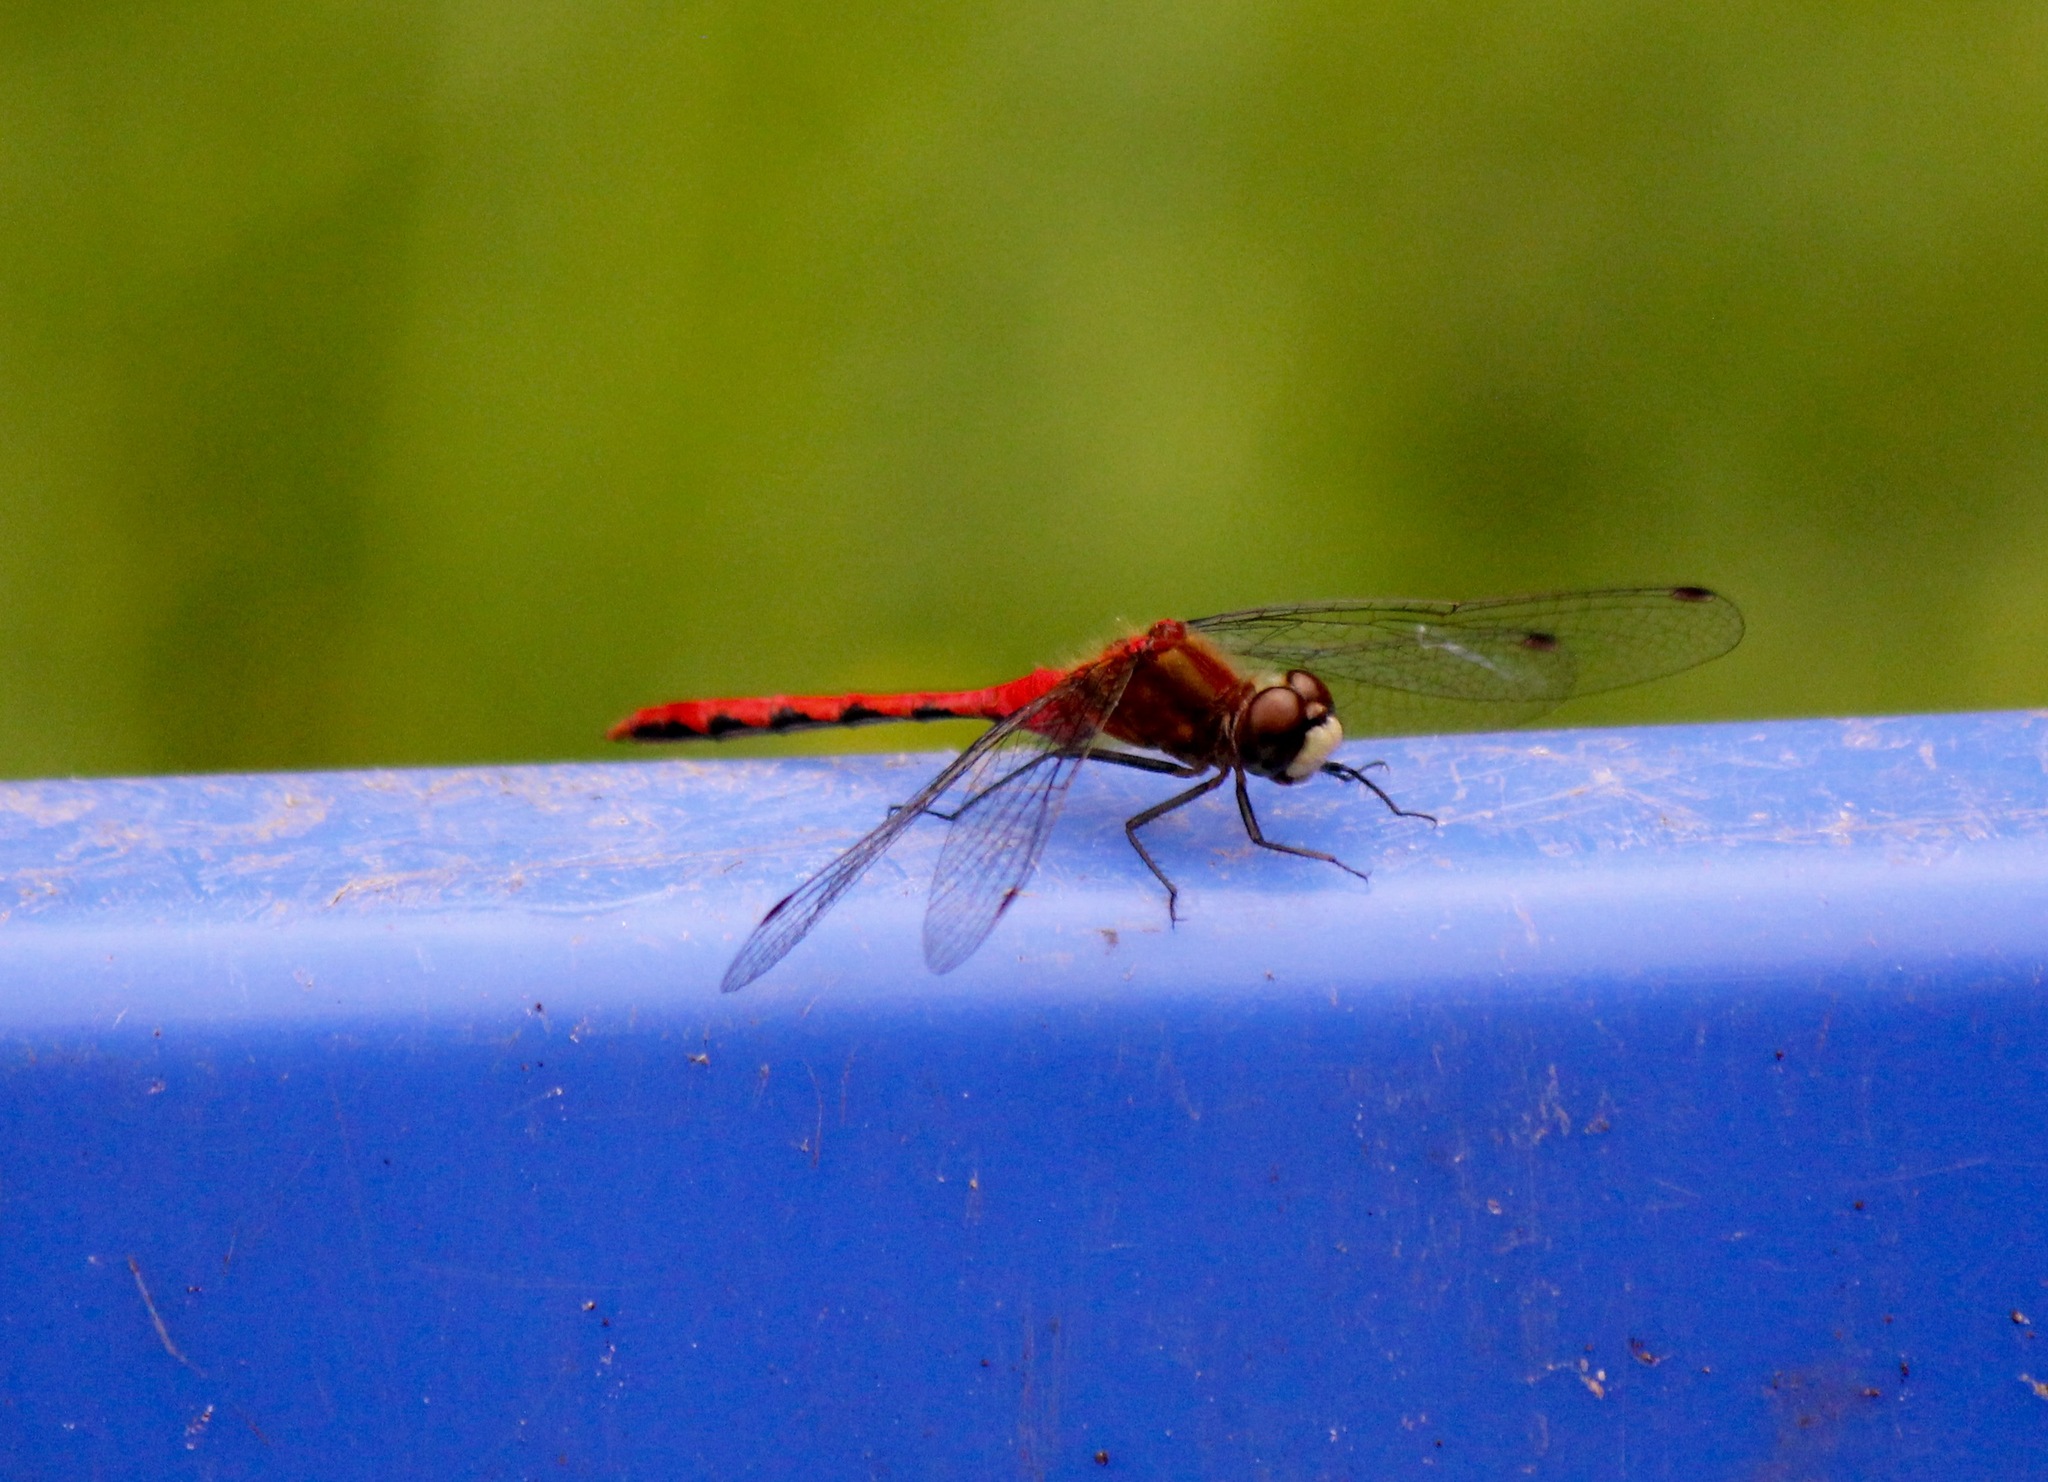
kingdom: Animalia
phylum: Arthropoda
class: Insecta
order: Odonata
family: Libellulidae
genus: Sympetrum
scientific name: Sympetrum obtrusum
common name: White-faced meadowhawk
